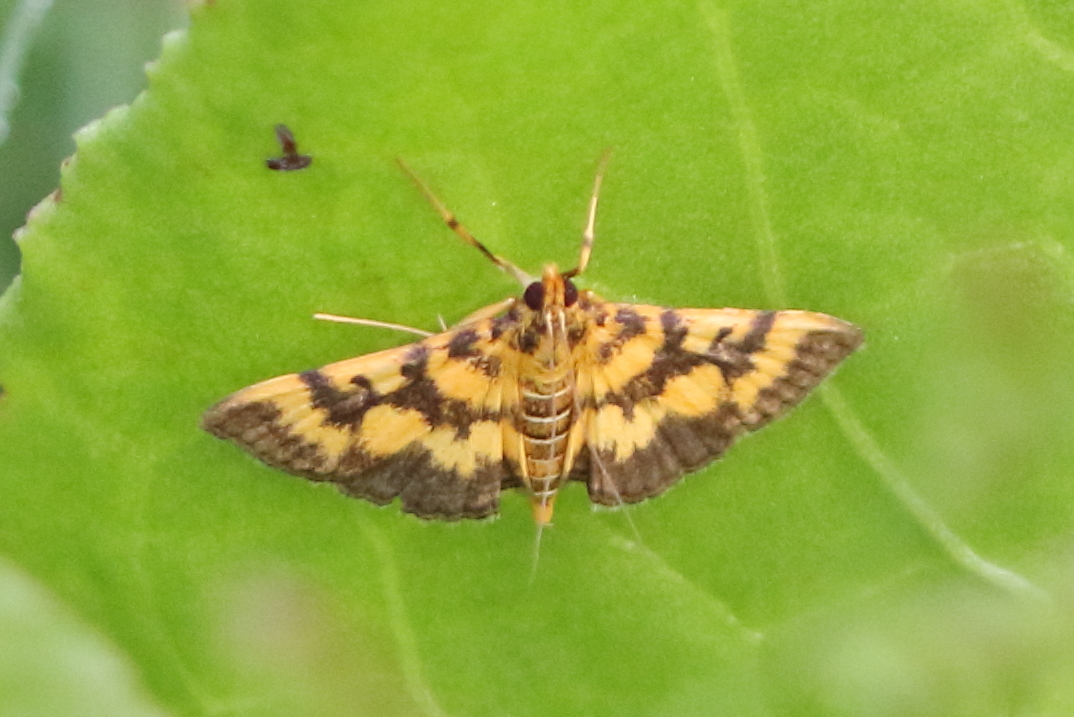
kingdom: Animalia
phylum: Arthropoda
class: Insecta
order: Lepidoptera
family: Crambidae
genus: Omiodes
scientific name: Omiodes diemenalis
